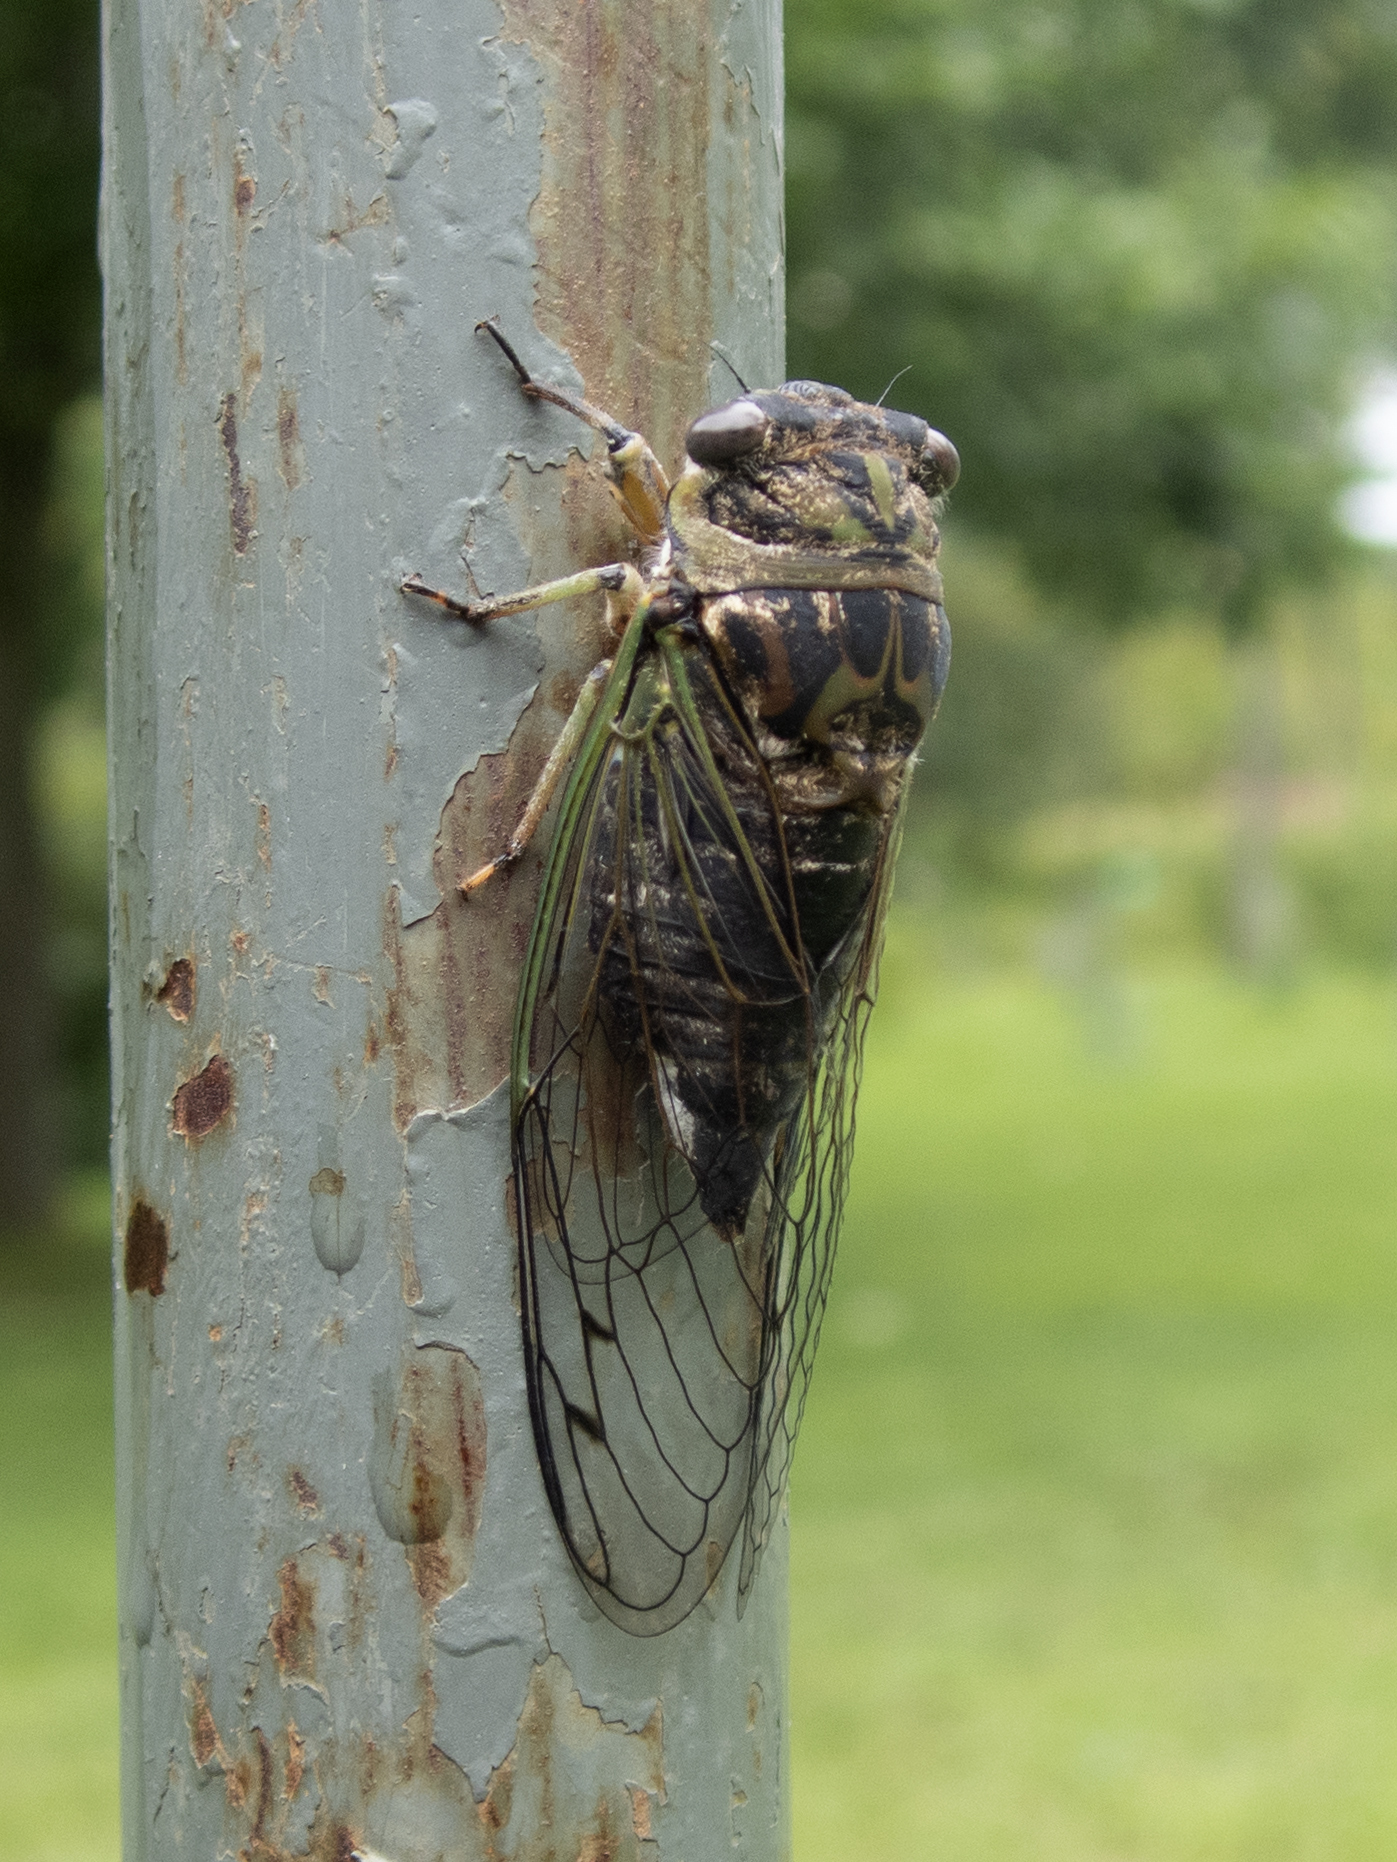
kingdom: Animalia
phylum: Arthropoda
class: Insecta
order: Hemiptera
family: Cicadidae
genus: Neotibicen
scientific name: Neotibicen canicularis
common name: God-day cicada
